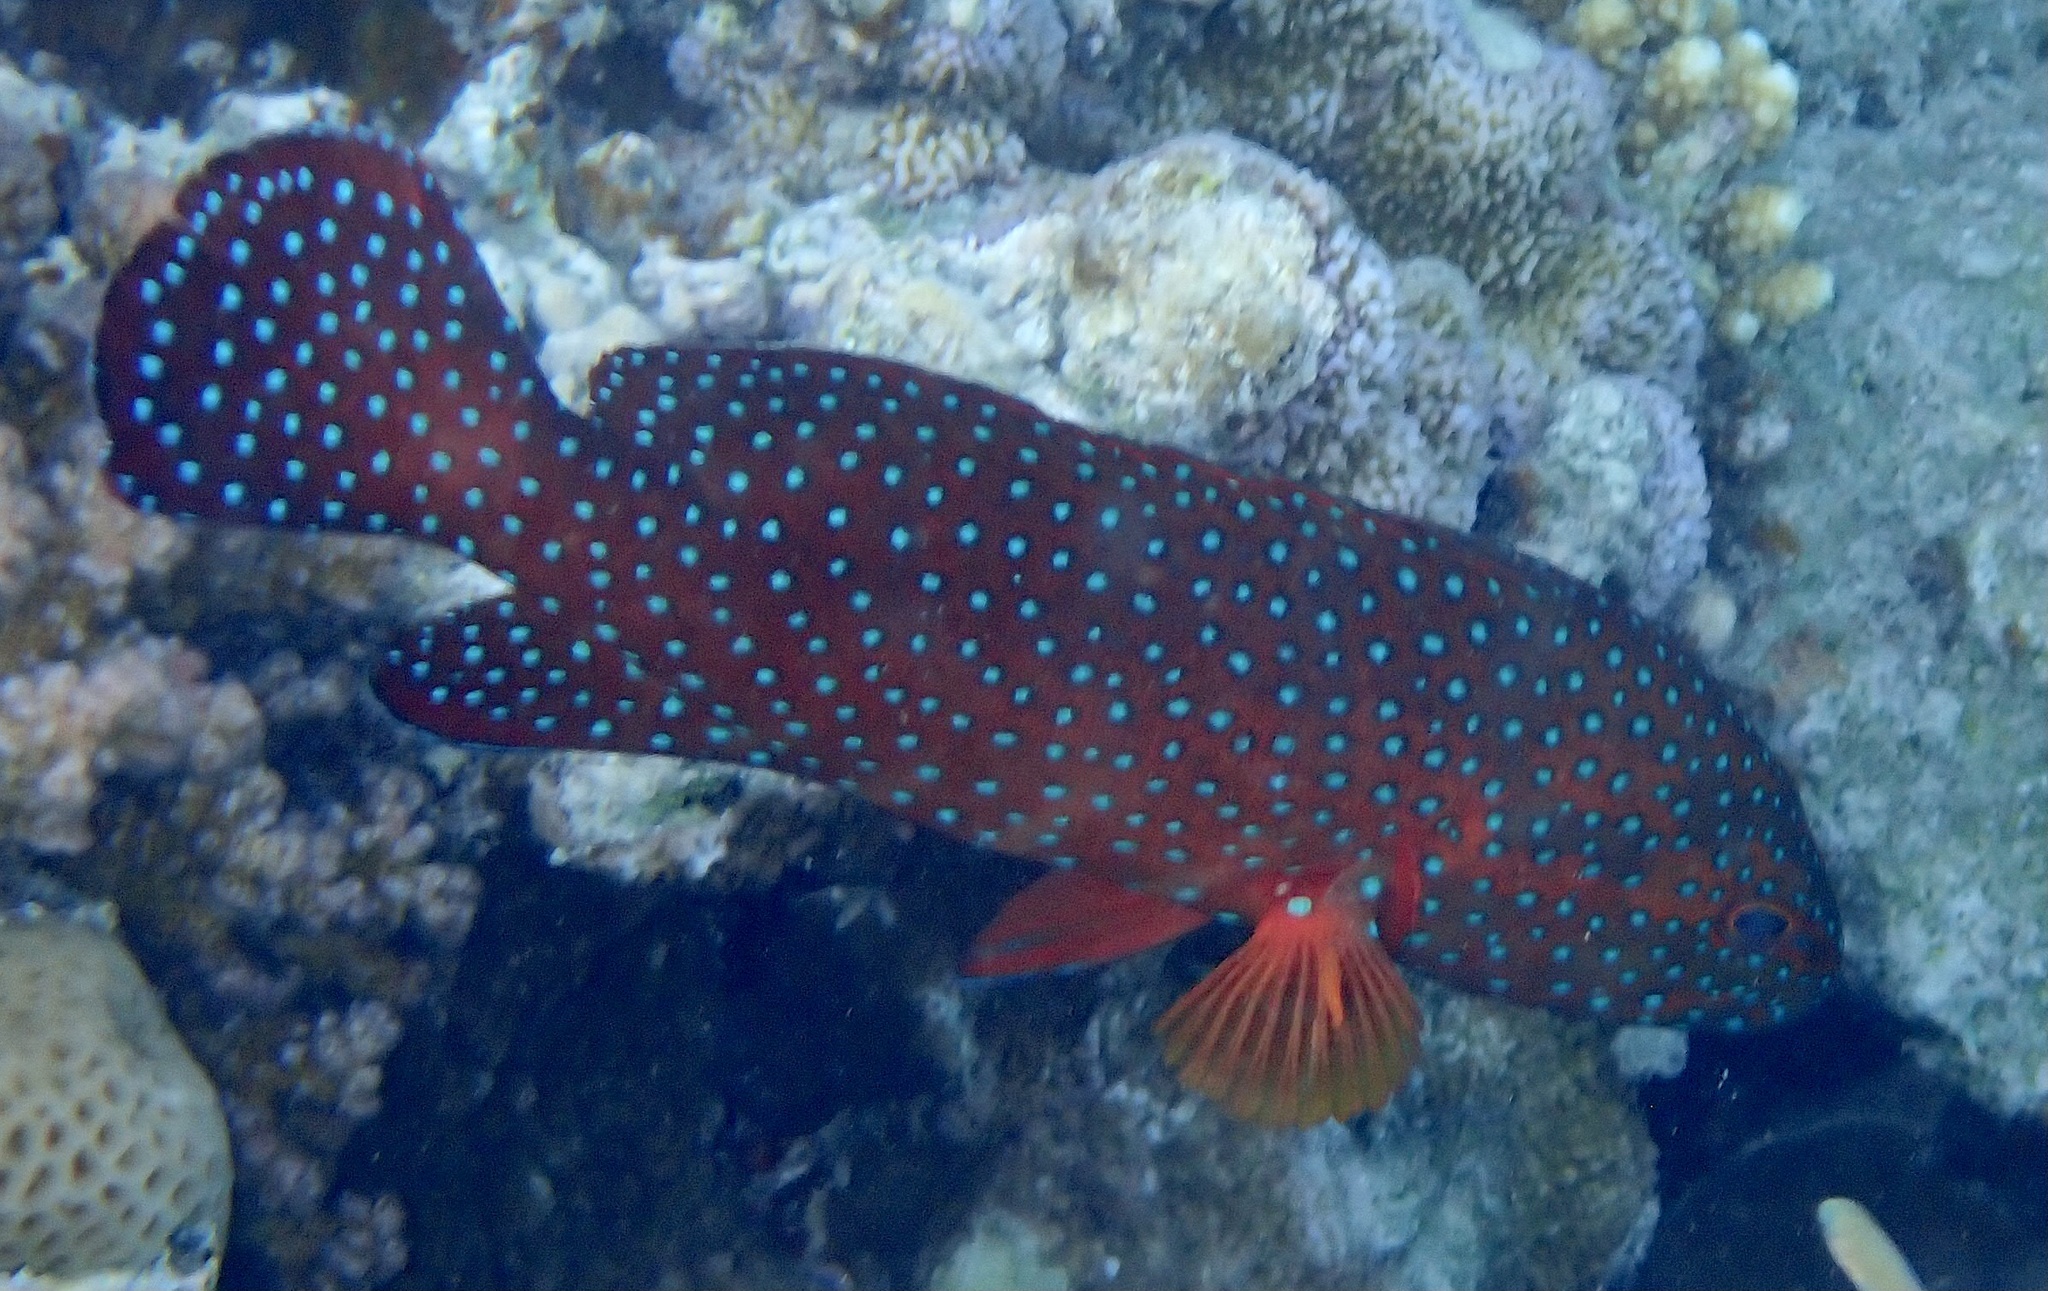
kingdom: Animalia
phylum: Chordata
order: Perciformes
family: Serranidae
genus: Cephalopholis
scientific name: Cephalopholis miniata
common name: Coral hind
